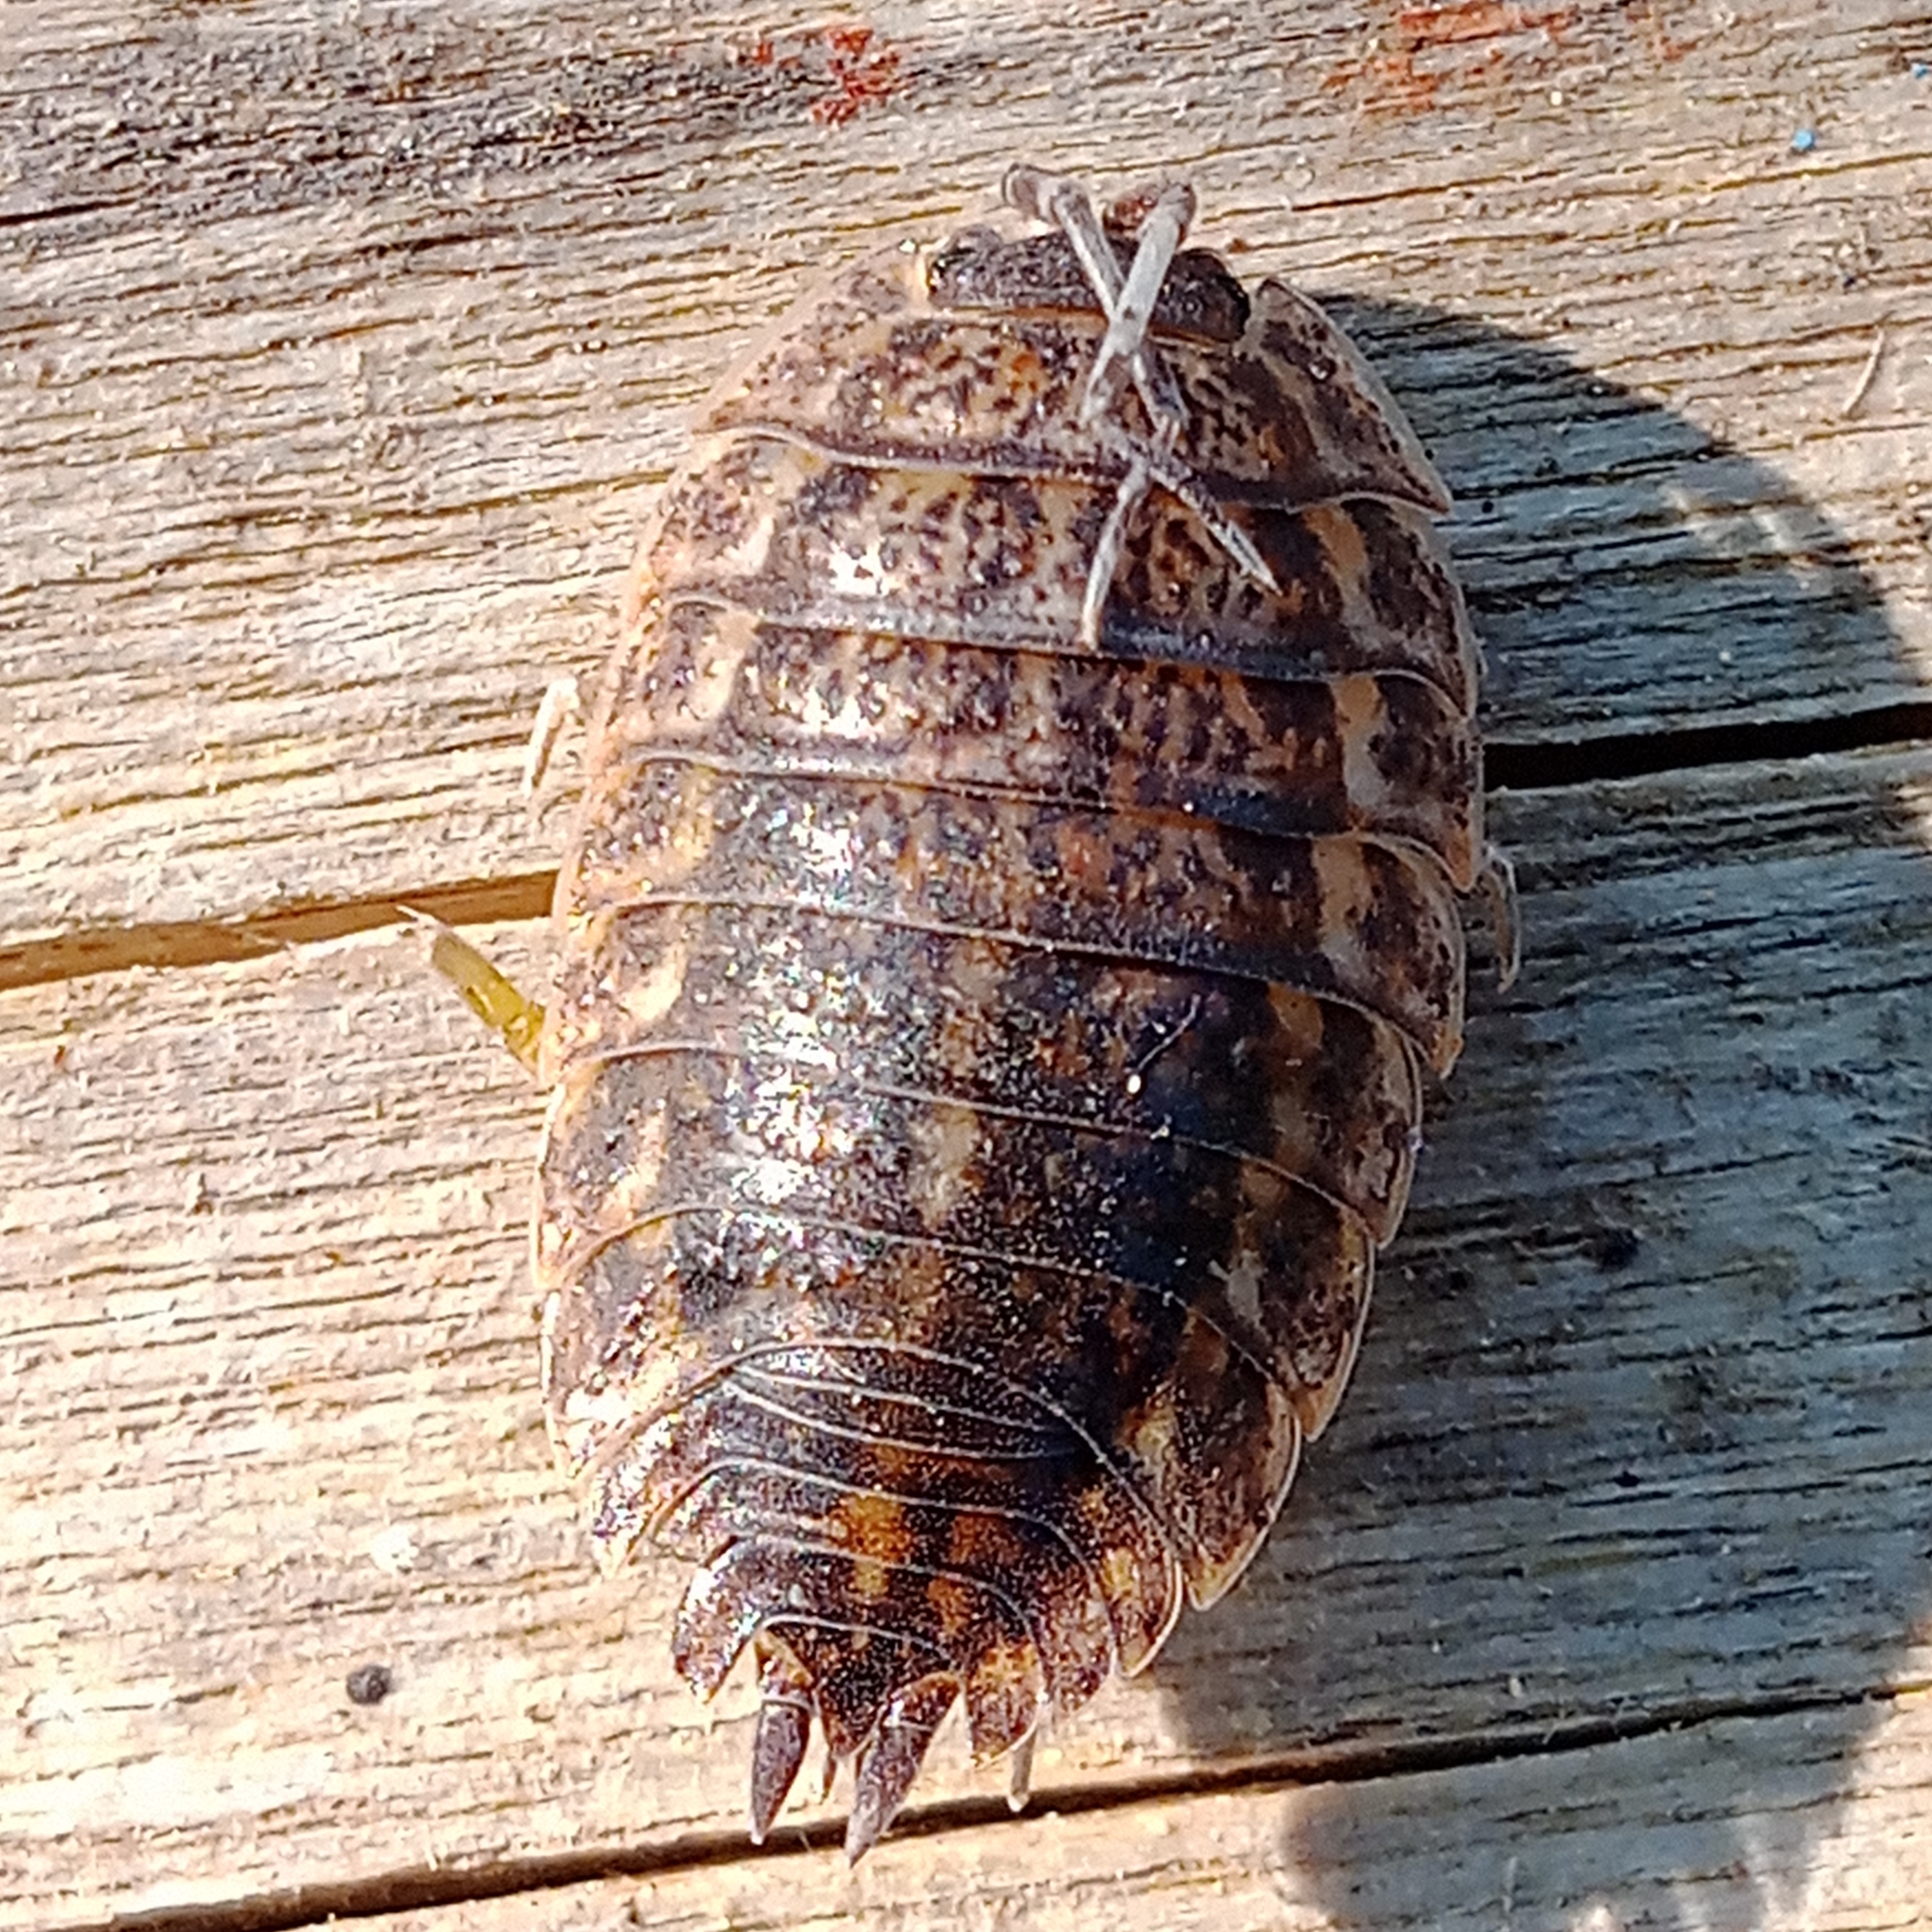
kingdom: Animalia
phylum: Arthropoda
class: Malacostraca
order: Isopoda
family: Trachelipodidae
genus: Trachelipus
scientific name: Trachelipus rathkii
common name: Isopod
